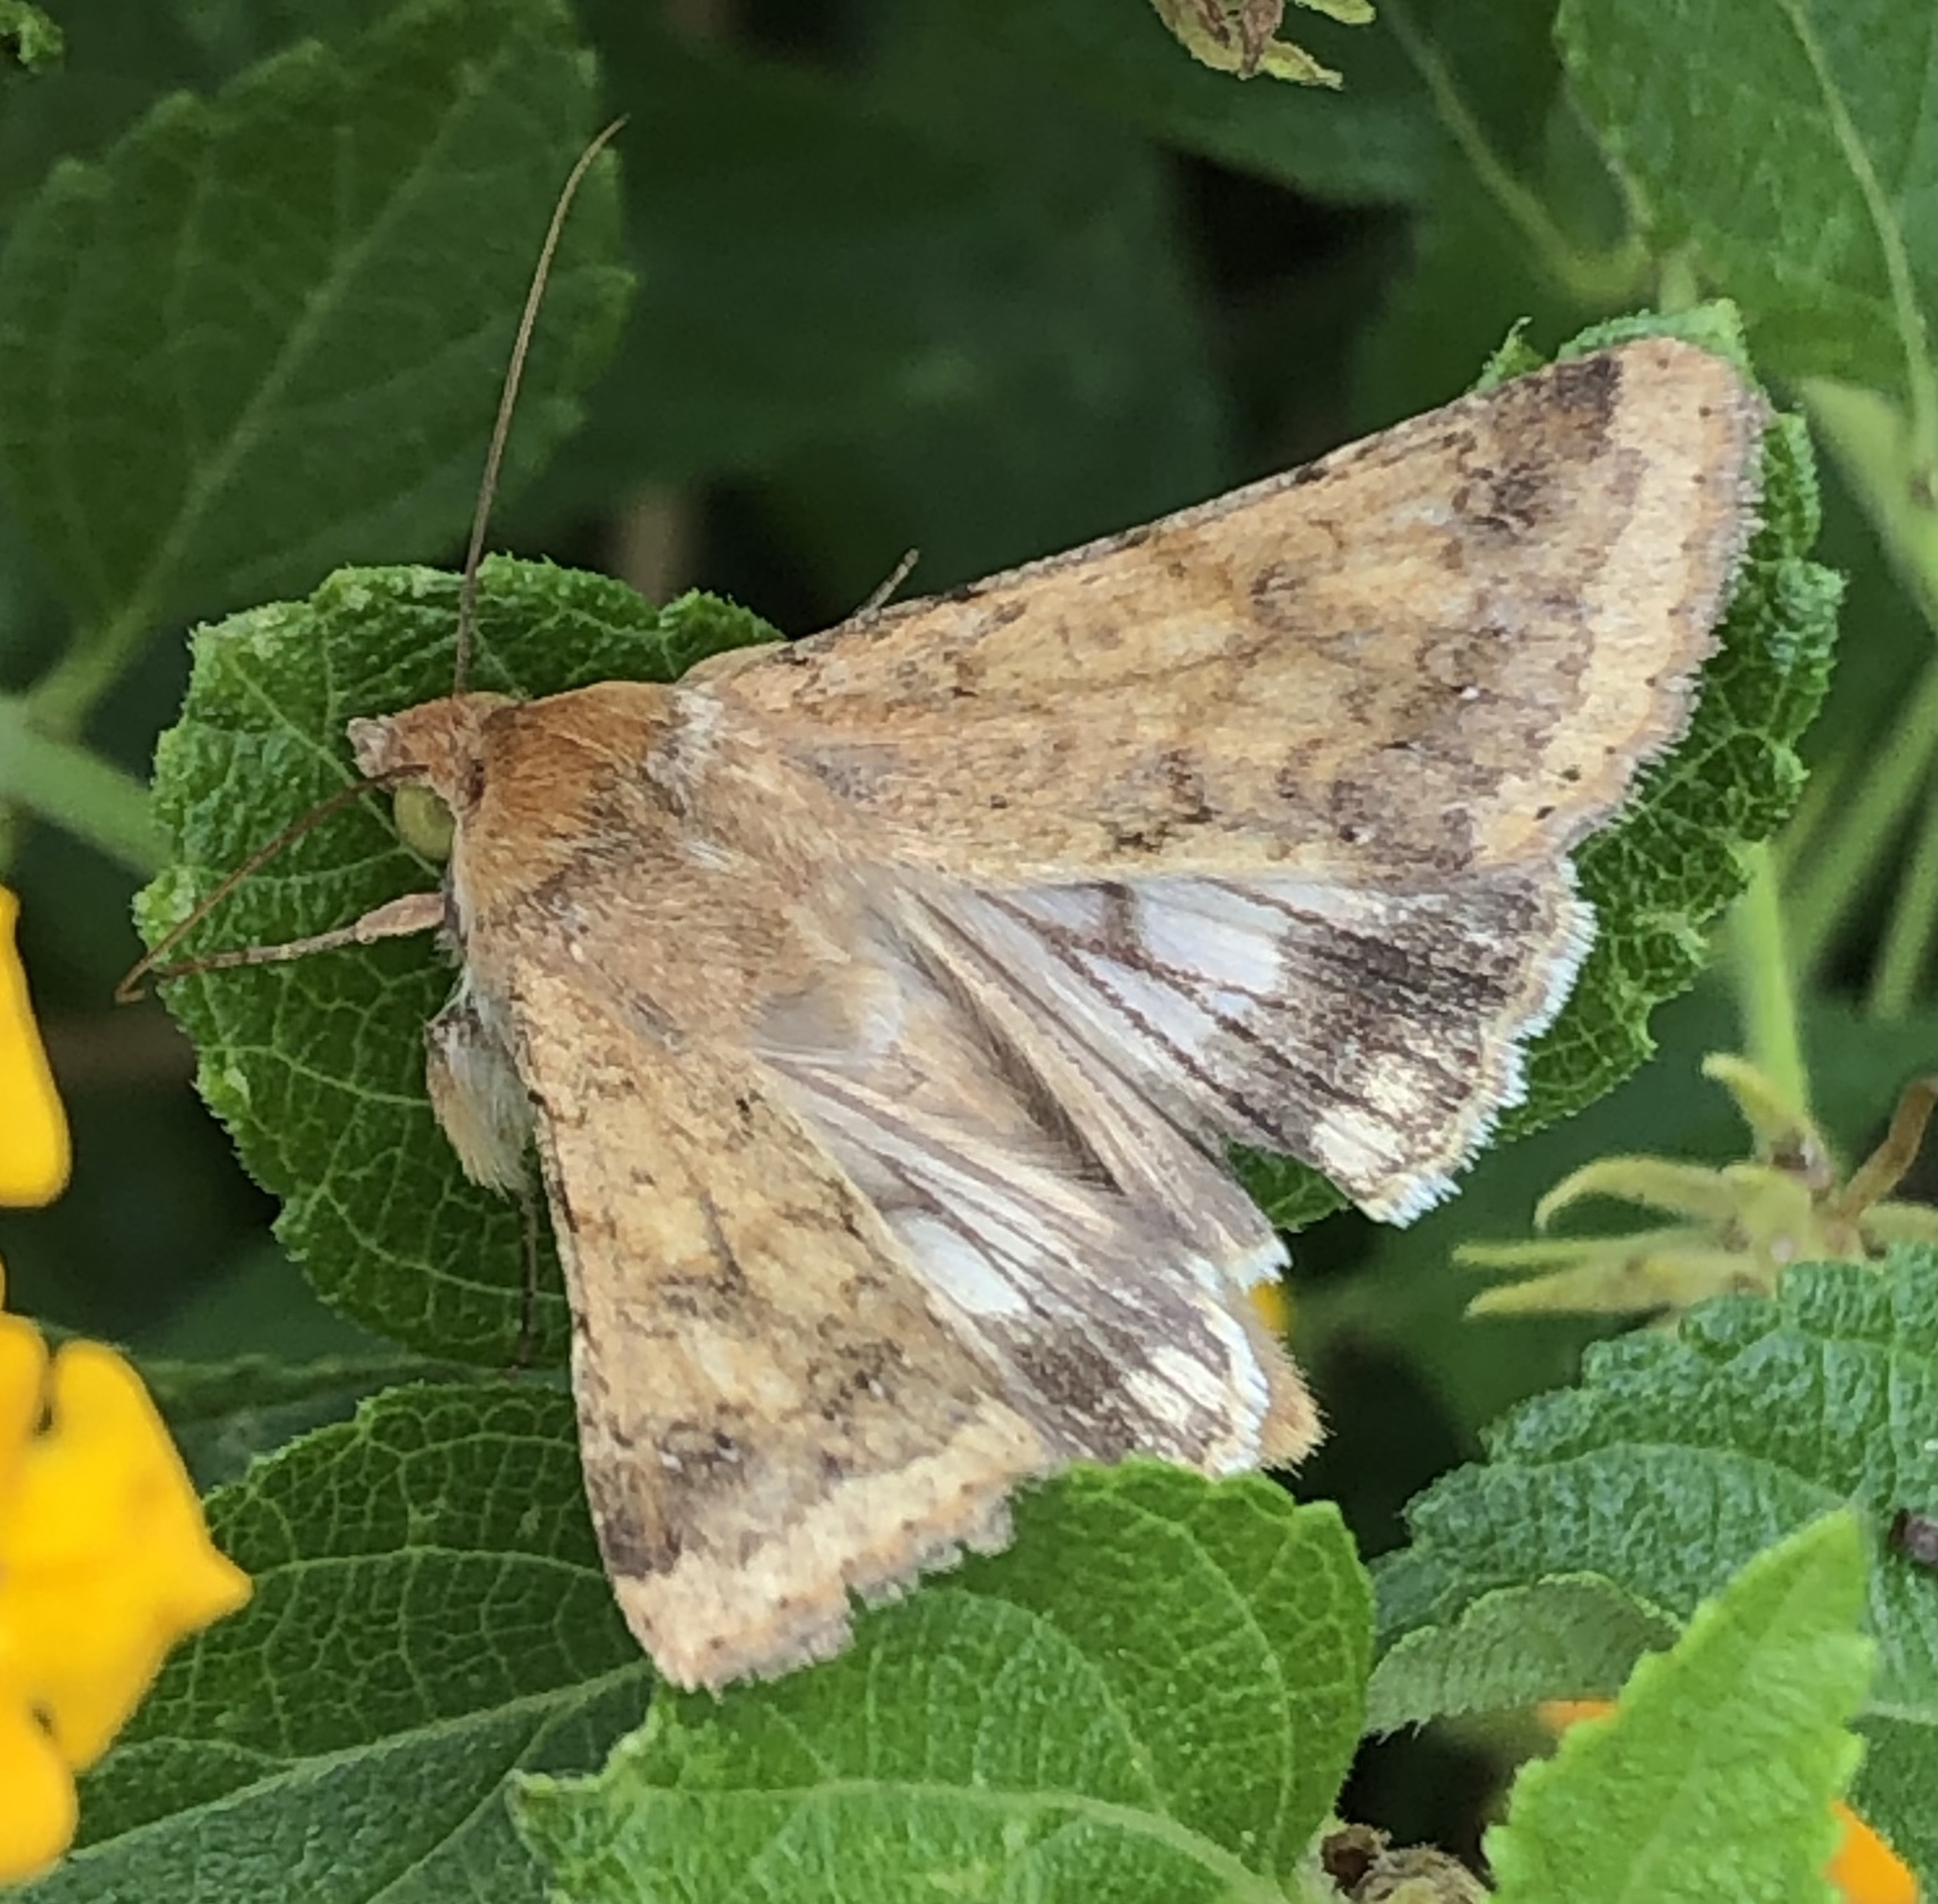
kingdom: Animalia
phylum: Arthropoda
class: Insecta
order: Lepidoptera
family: Noctuidae
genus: Helicoverpa
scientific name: Helicoverpa zea
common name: Bollworm
